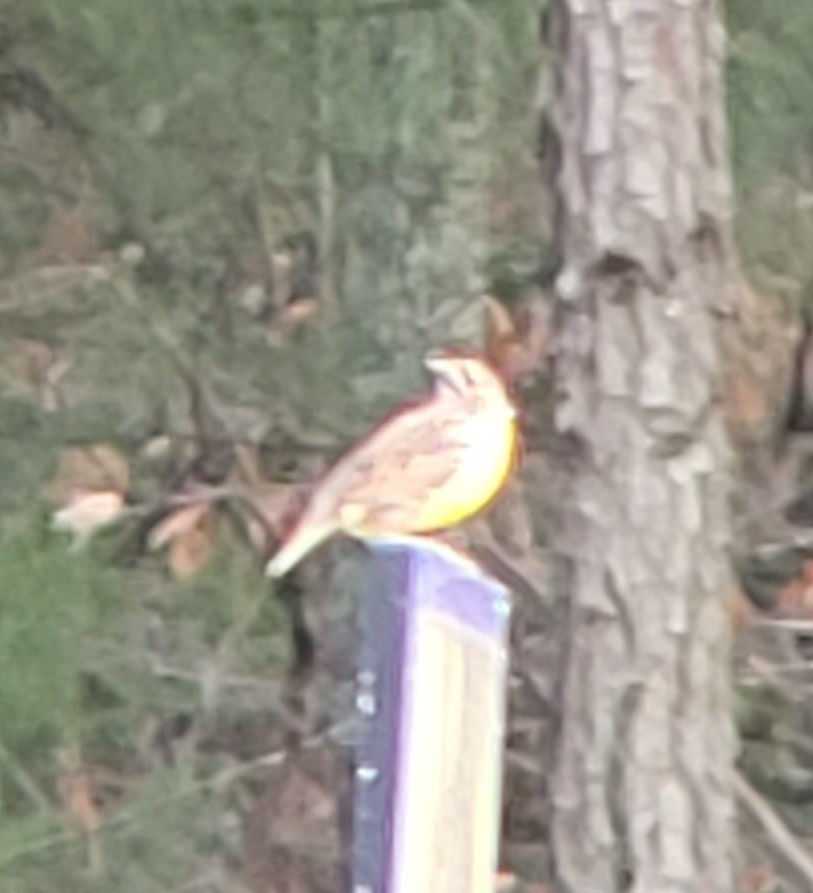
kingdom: Animalia
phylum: Chordata
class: Aves
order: Passeriformes
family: Icteridae
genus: Sturnella
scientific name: Sturnella magna
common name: Eastern meadowlark
